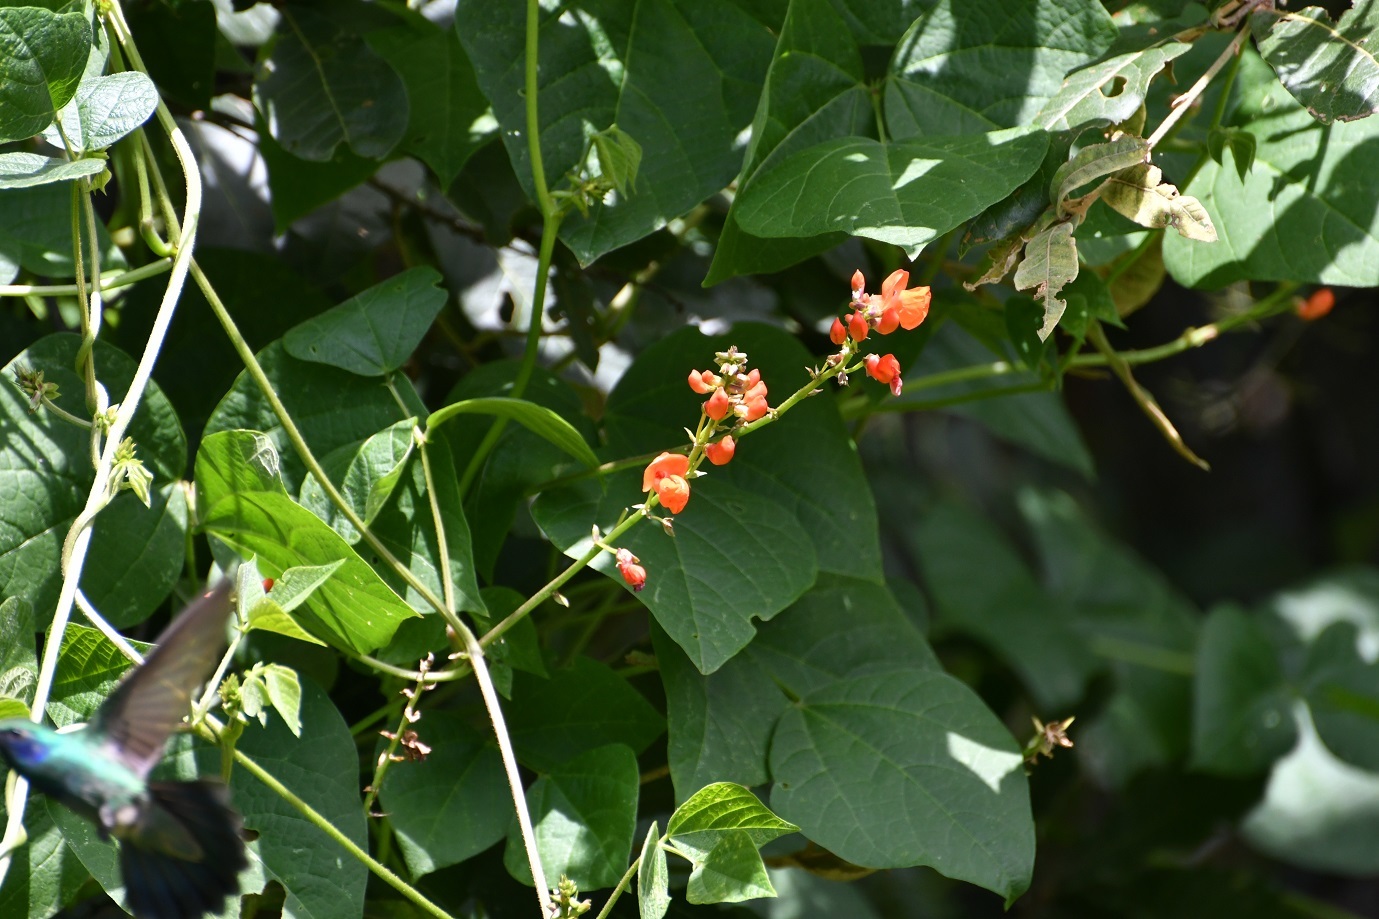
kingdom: Plantae
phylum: Tracheophyta
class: Magnoliopsida
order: Fabales
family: Fabaceae
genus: Phaseolus
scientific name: Phaseolus coccineus
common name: Runner bean
